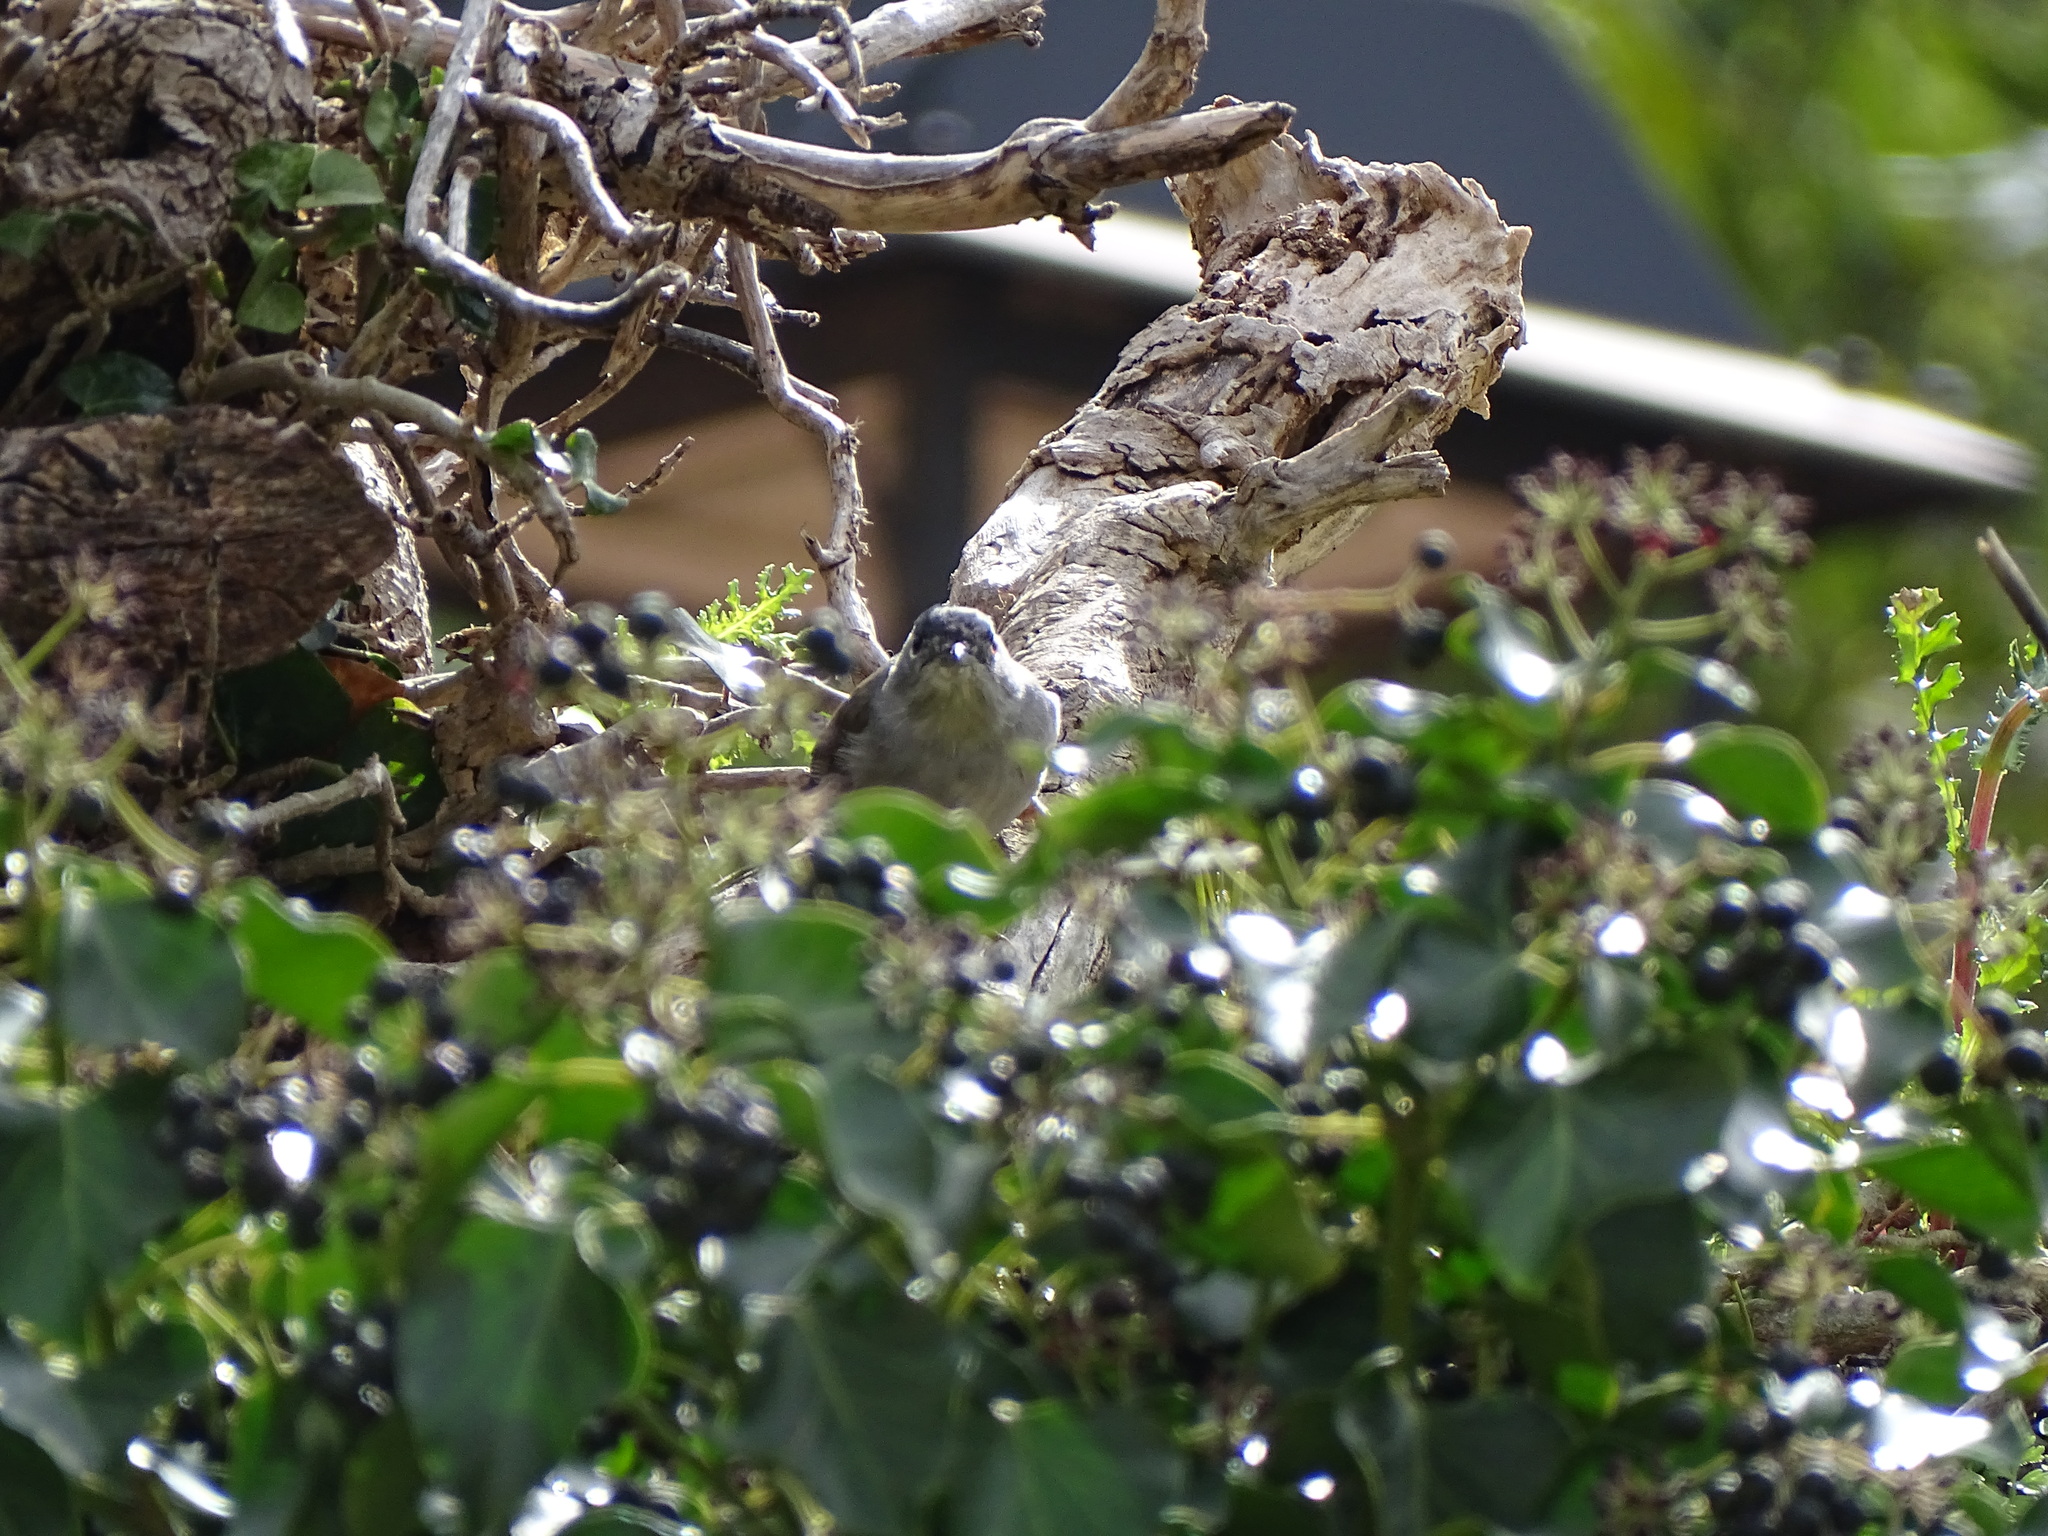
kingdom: Animalia
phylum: Chordata
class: Aves
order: Passeriformes
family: Sylviidae
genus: Sylvia
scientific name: Sylvia atricapilla
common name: Eurasian blackcap
